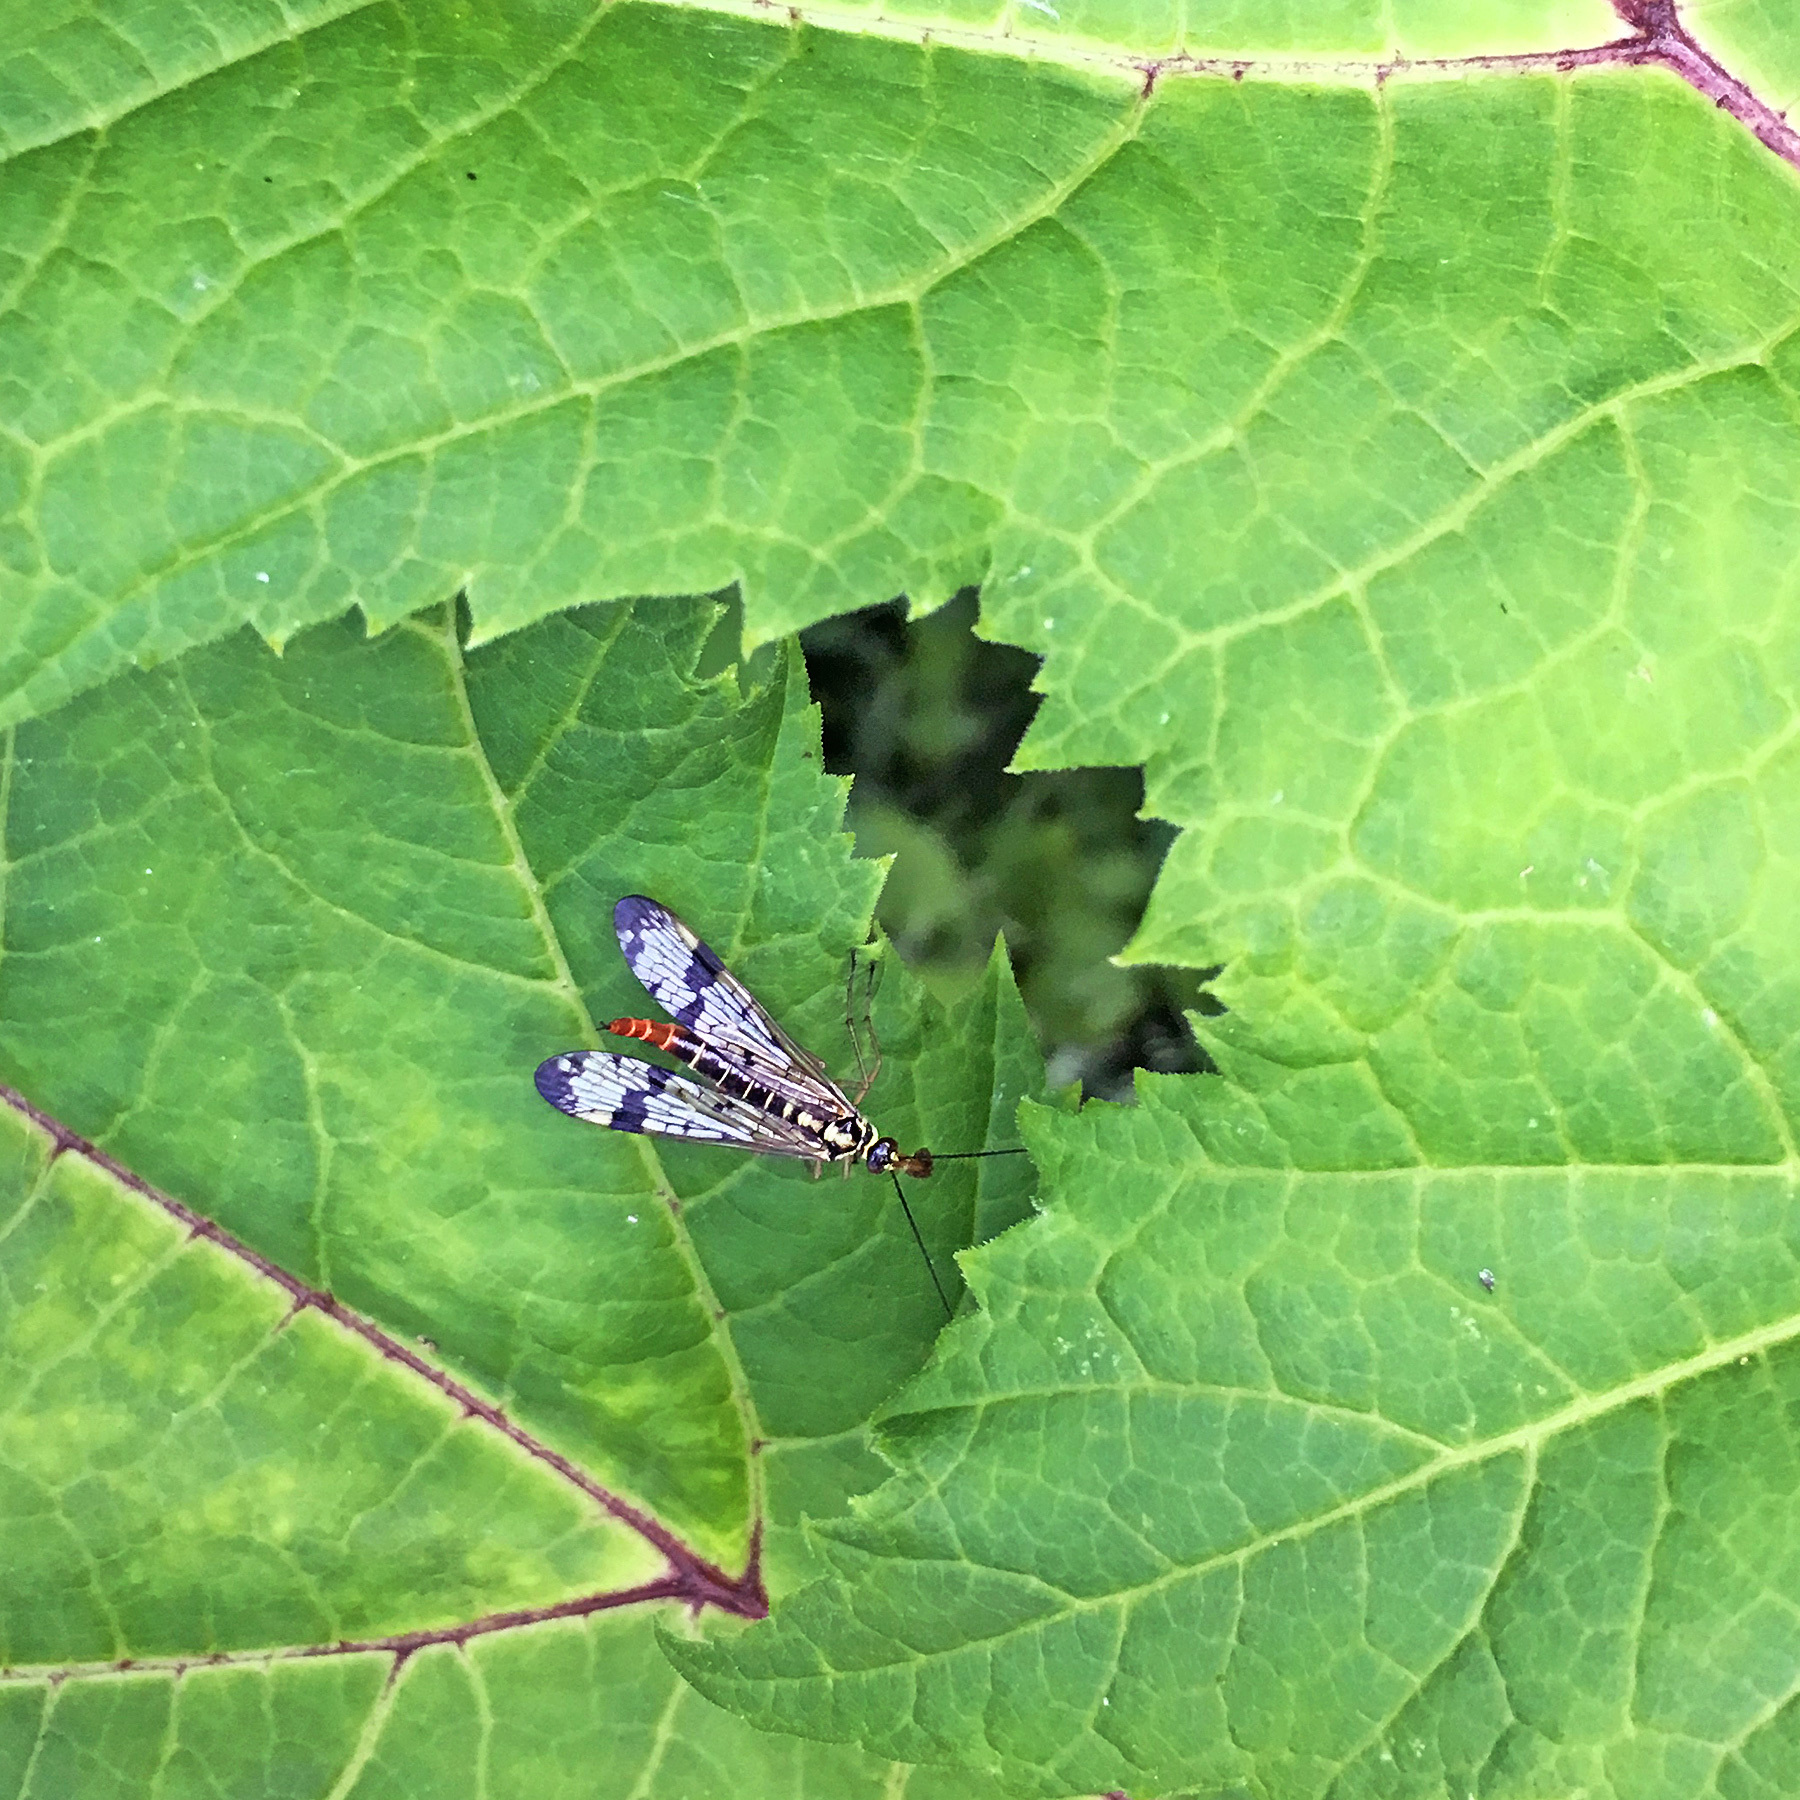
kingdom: Animalia
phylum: Arthropoda
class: Insecta
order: Mecoptera
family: Panorpidae
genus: Panorpa
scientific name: Panorpa communis
